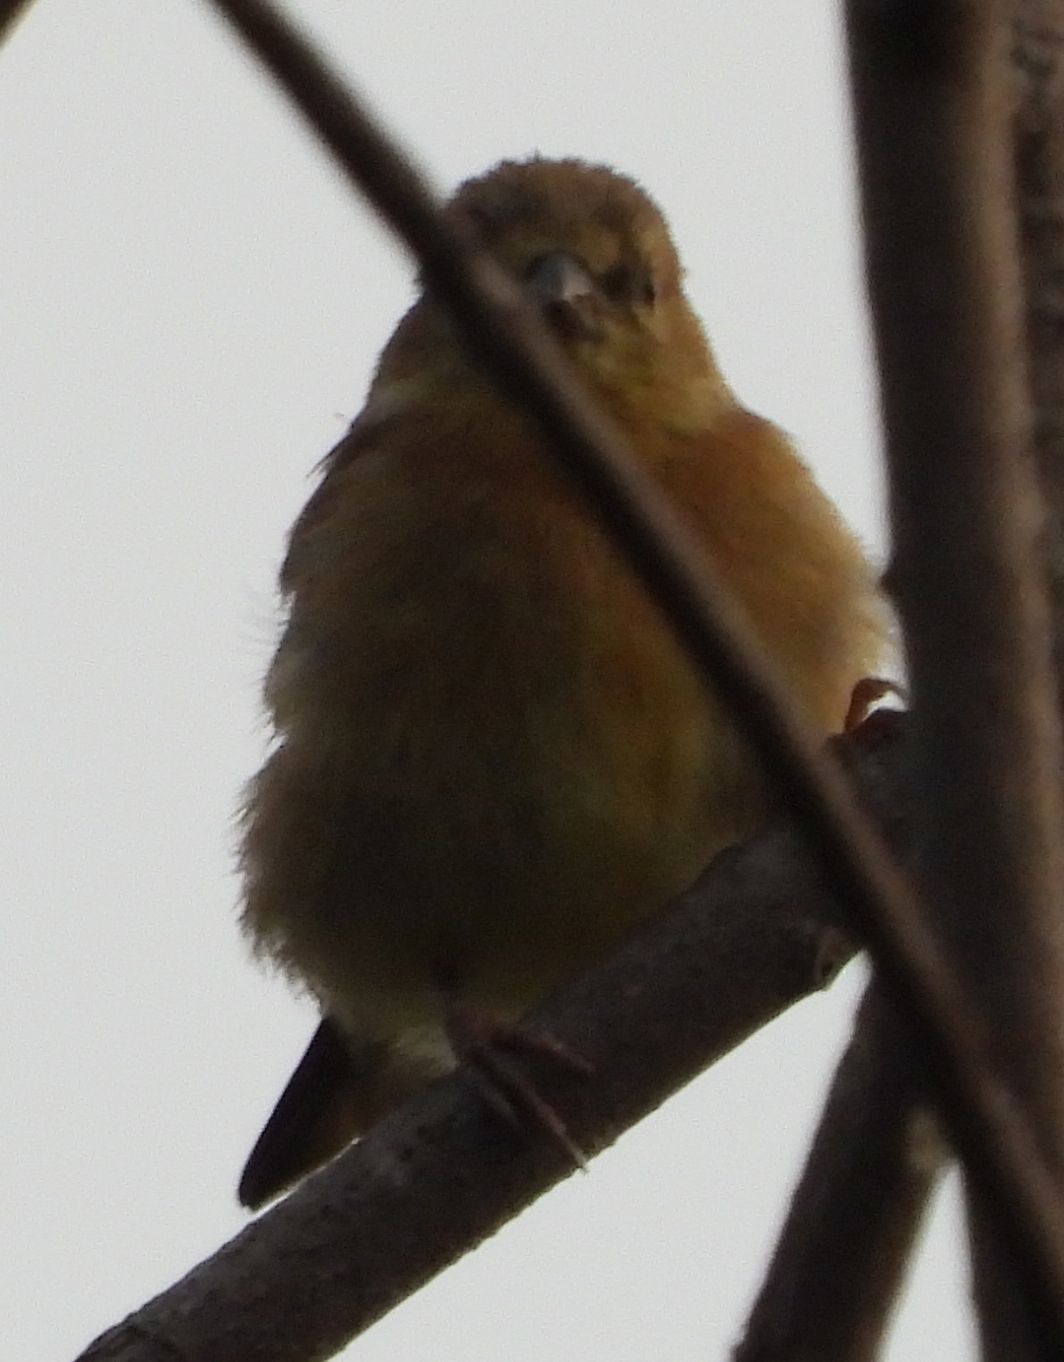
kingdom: Animalia
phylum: Chordata
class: Aves
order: Passeriformes
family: Fringillidae
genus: Spinus
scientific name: Spinus tristis
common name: American goldfinch
